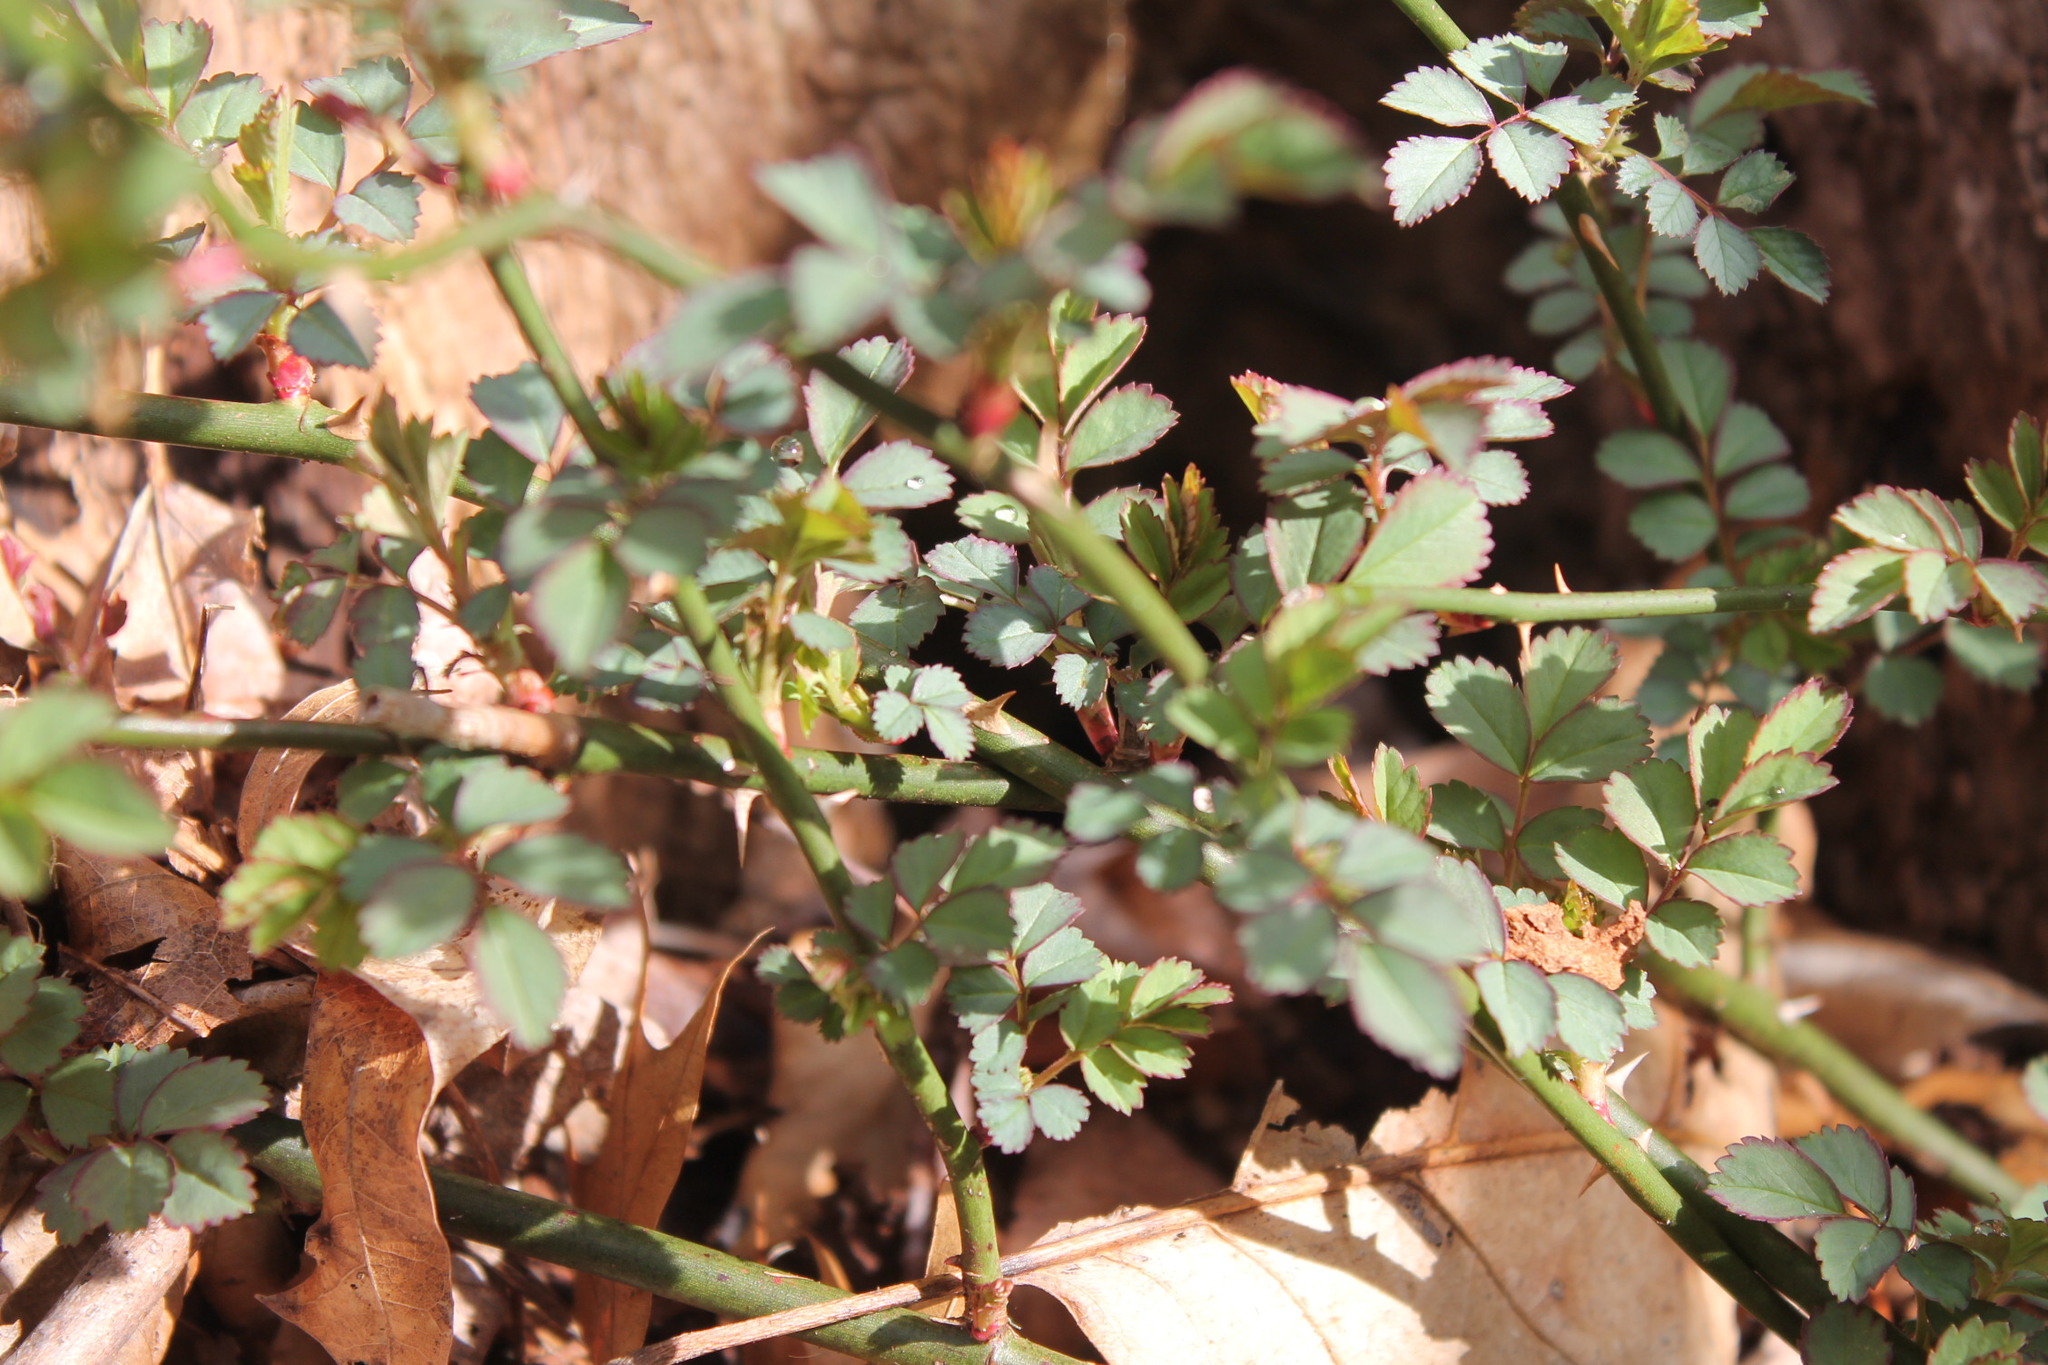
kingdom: Plantae
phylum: Tracheophyta
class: Magnoliopsida
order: Rosales
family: Rosaceae
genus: Rosa
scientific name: Rosa multiflora
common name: Multiflora rose
